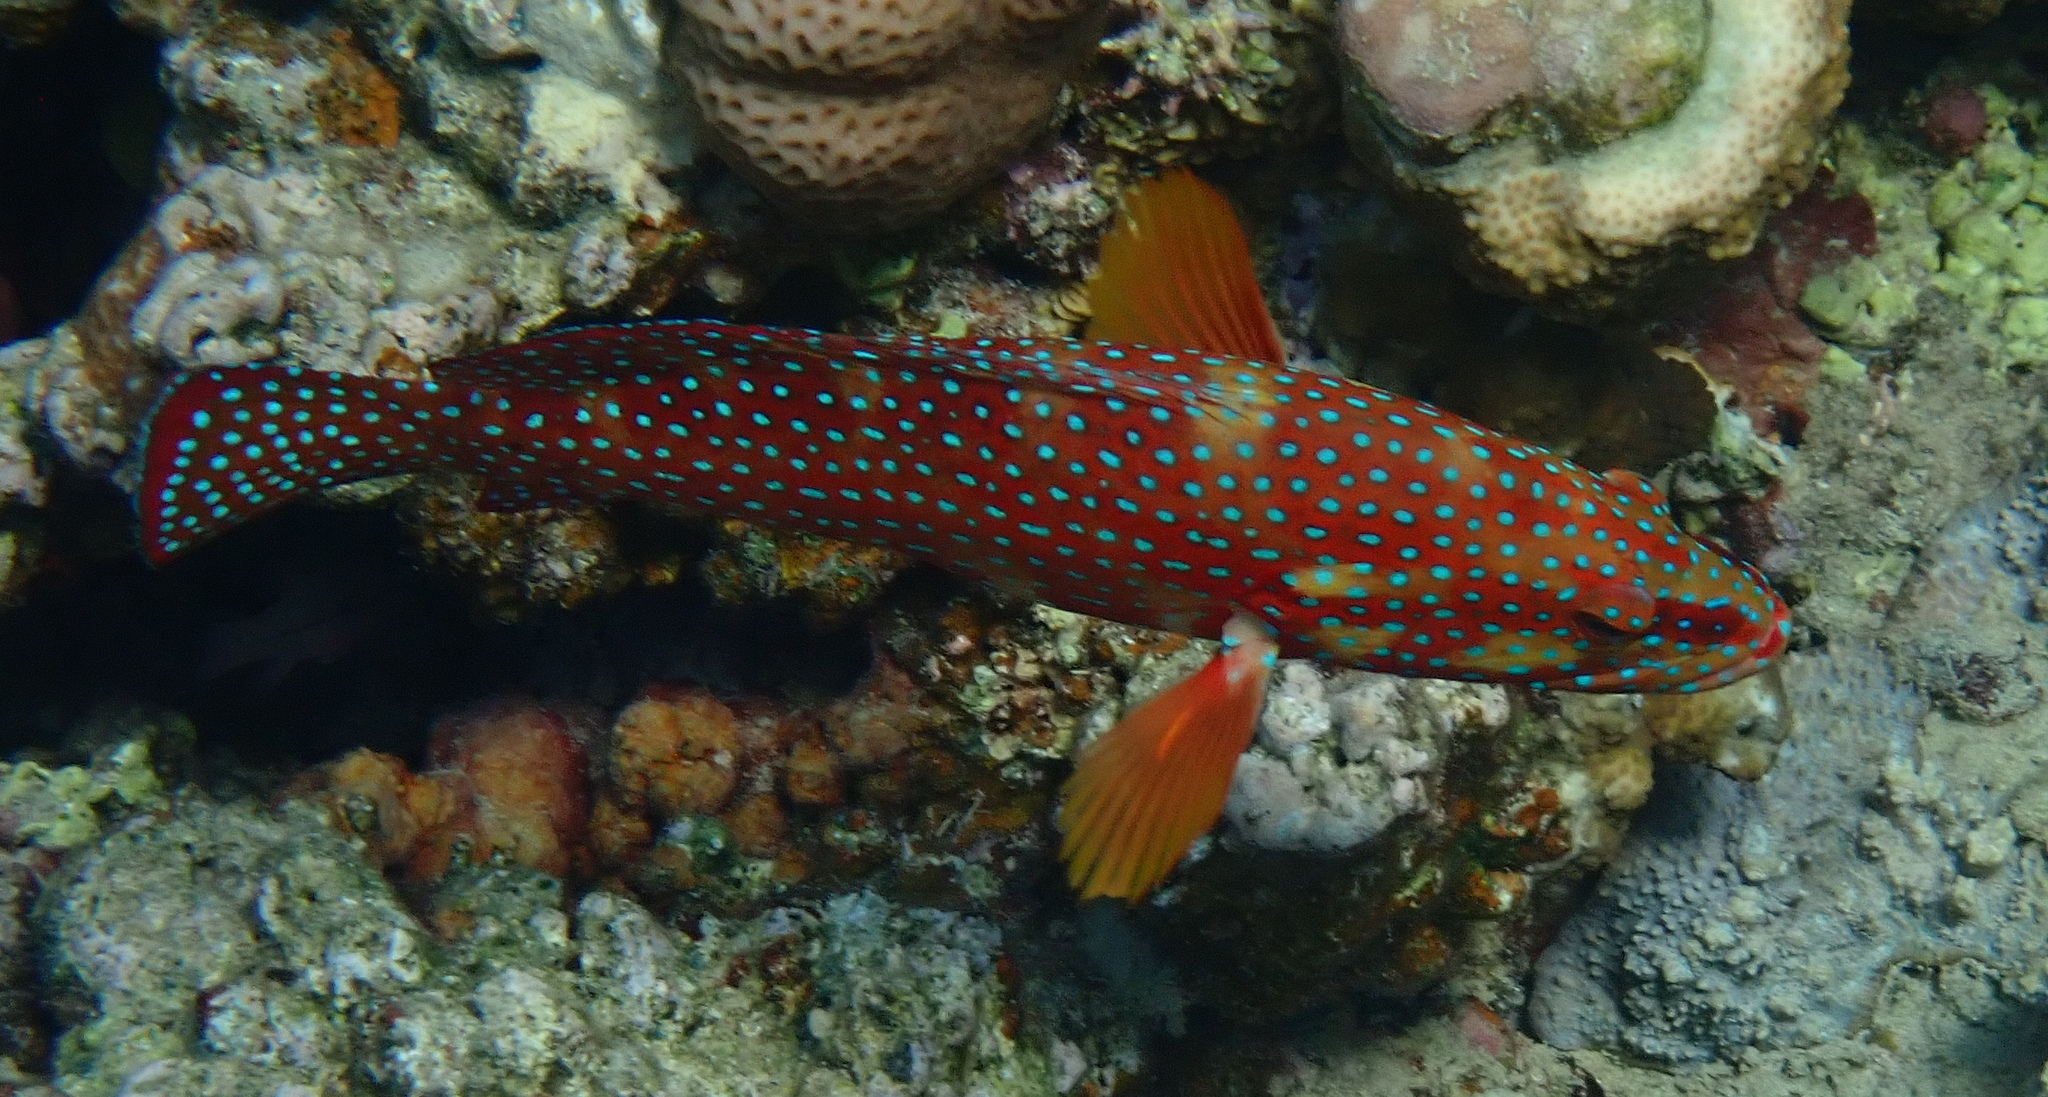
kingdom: Animalia
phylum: Chordata
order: Perciformes
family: Serranidae
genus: Cephalopholis
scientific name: Cephalopholis miniata
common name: Coral hind
